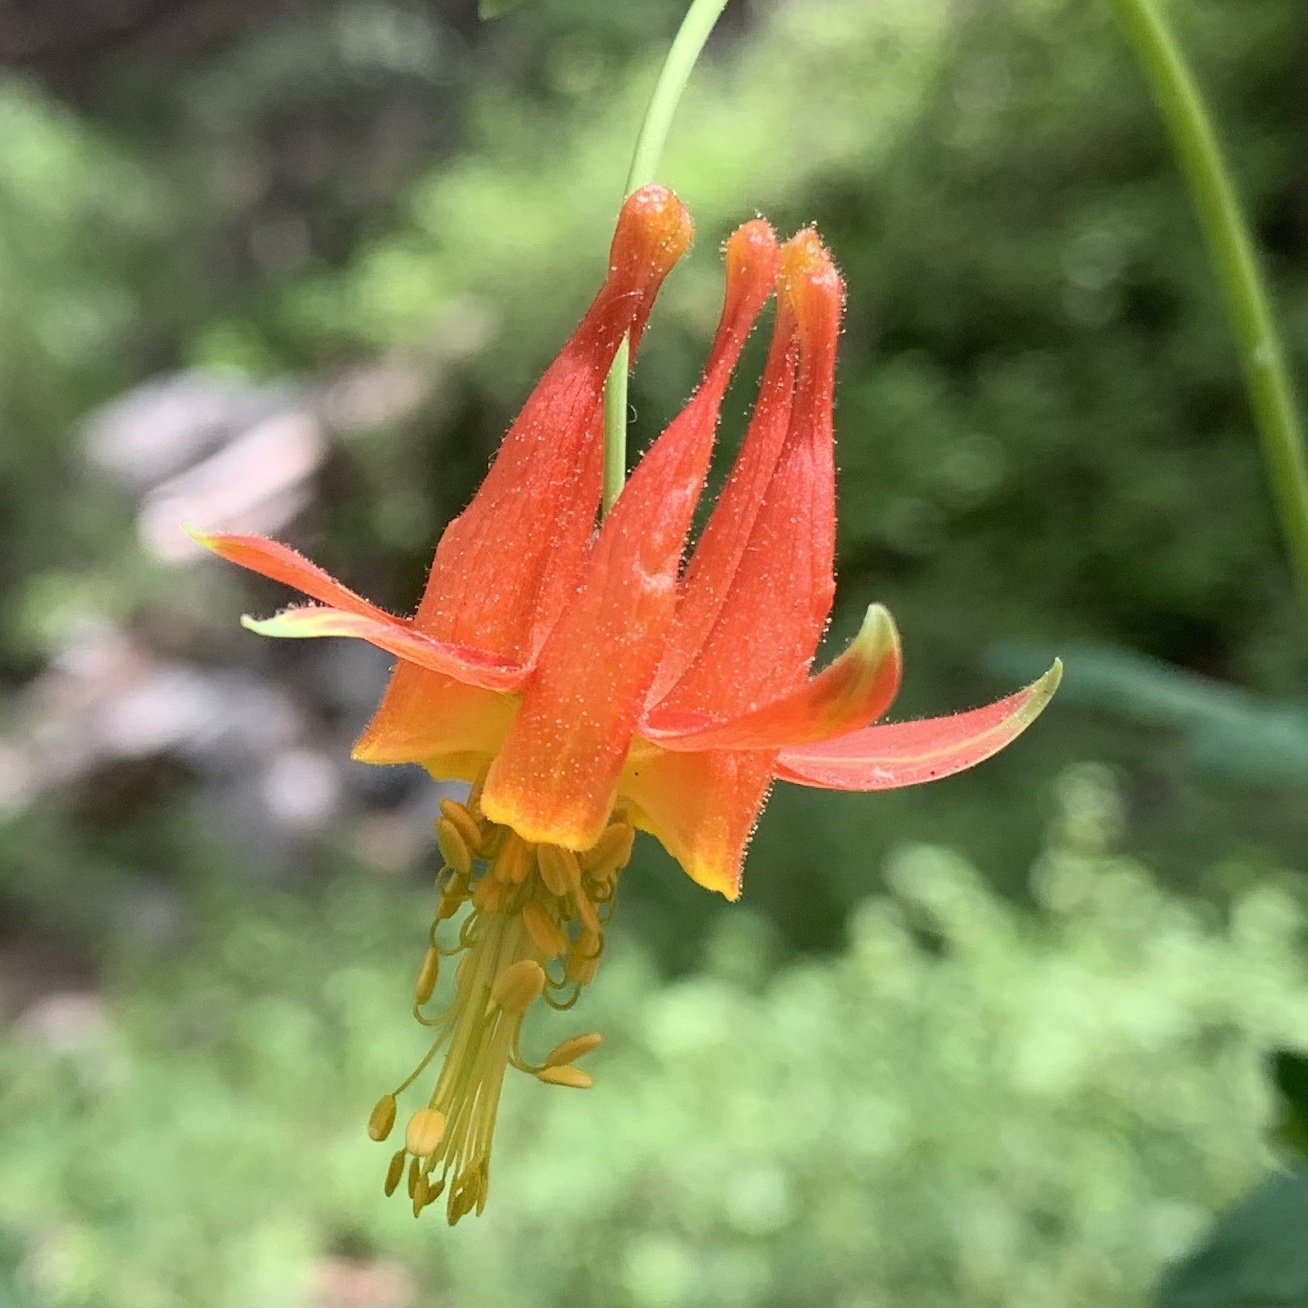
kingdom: Plantae
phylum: Tracheophyta
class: Magnoliopsida
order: Ranunculales
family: Ranunculaceae
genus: Aquilegia
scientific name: Aquilegia formosa
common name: Sitka columbine
